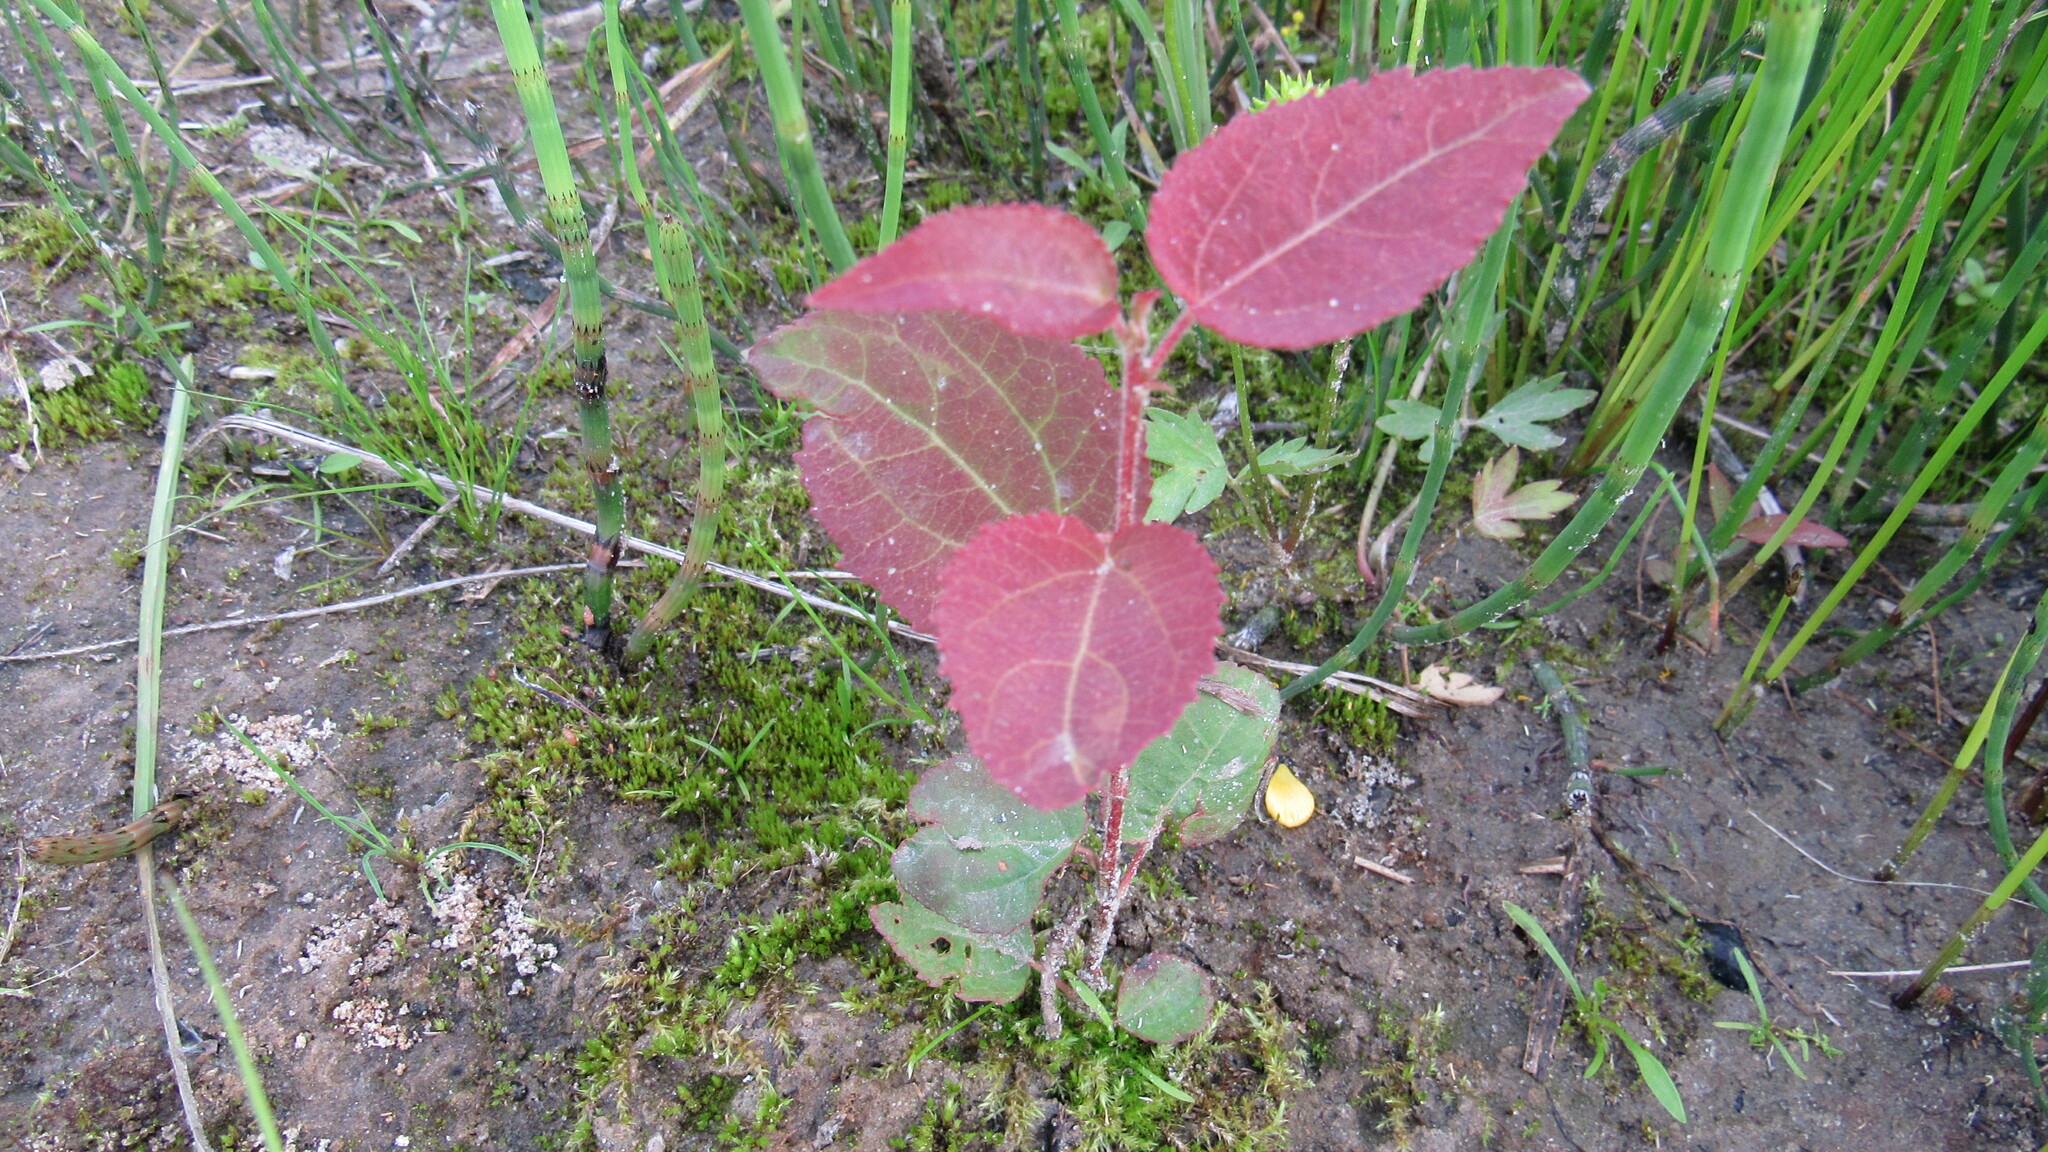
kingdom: Plantae
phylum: Tracheophyta
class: Magnoliopsida
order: Malpighiales
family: Salicaceae
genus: Populus
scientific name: Populus tremula
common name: European aspen
